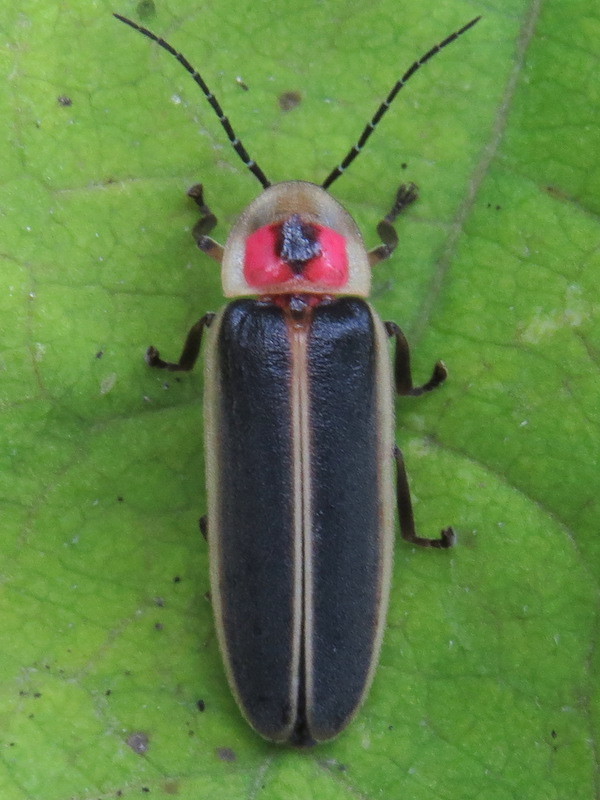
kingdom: Animalia
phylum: Arthropoda
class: Insecta
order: Coleoptera
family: Lampyridae
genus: Photinus
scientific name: Photinus pyralis
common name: Big dipper firefly
